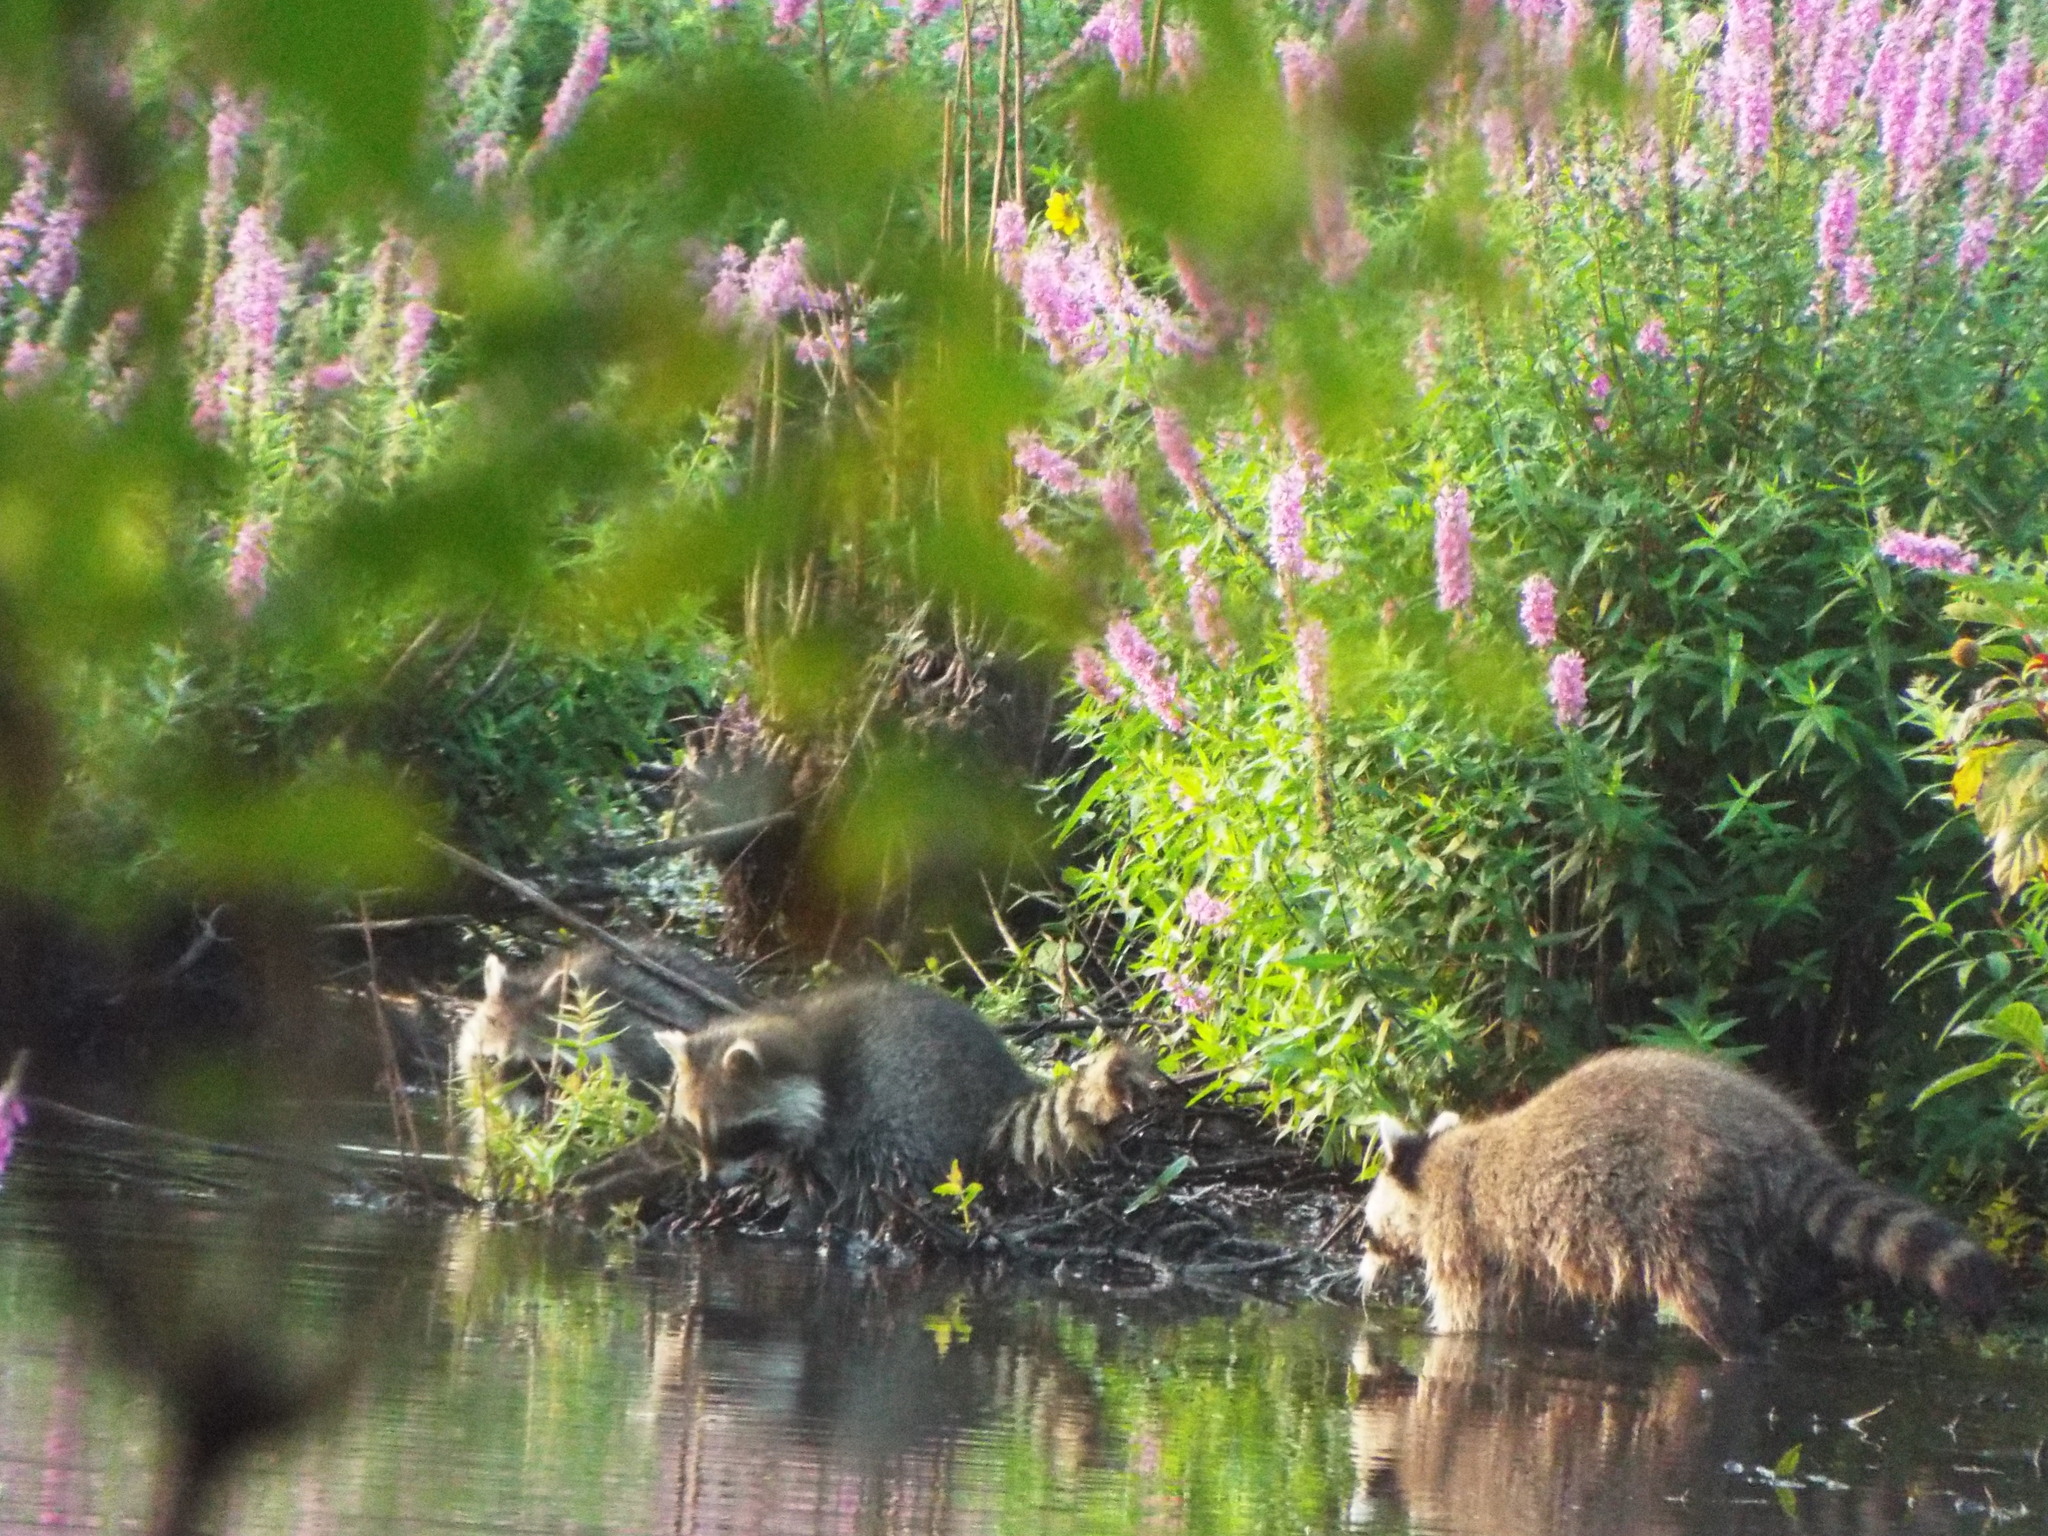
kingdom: Animalia
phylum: Chordata
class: Mammalia
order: Carnivora
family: Procyonidae
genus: Procyon
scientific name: Procyon lotor
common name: Raccoon
